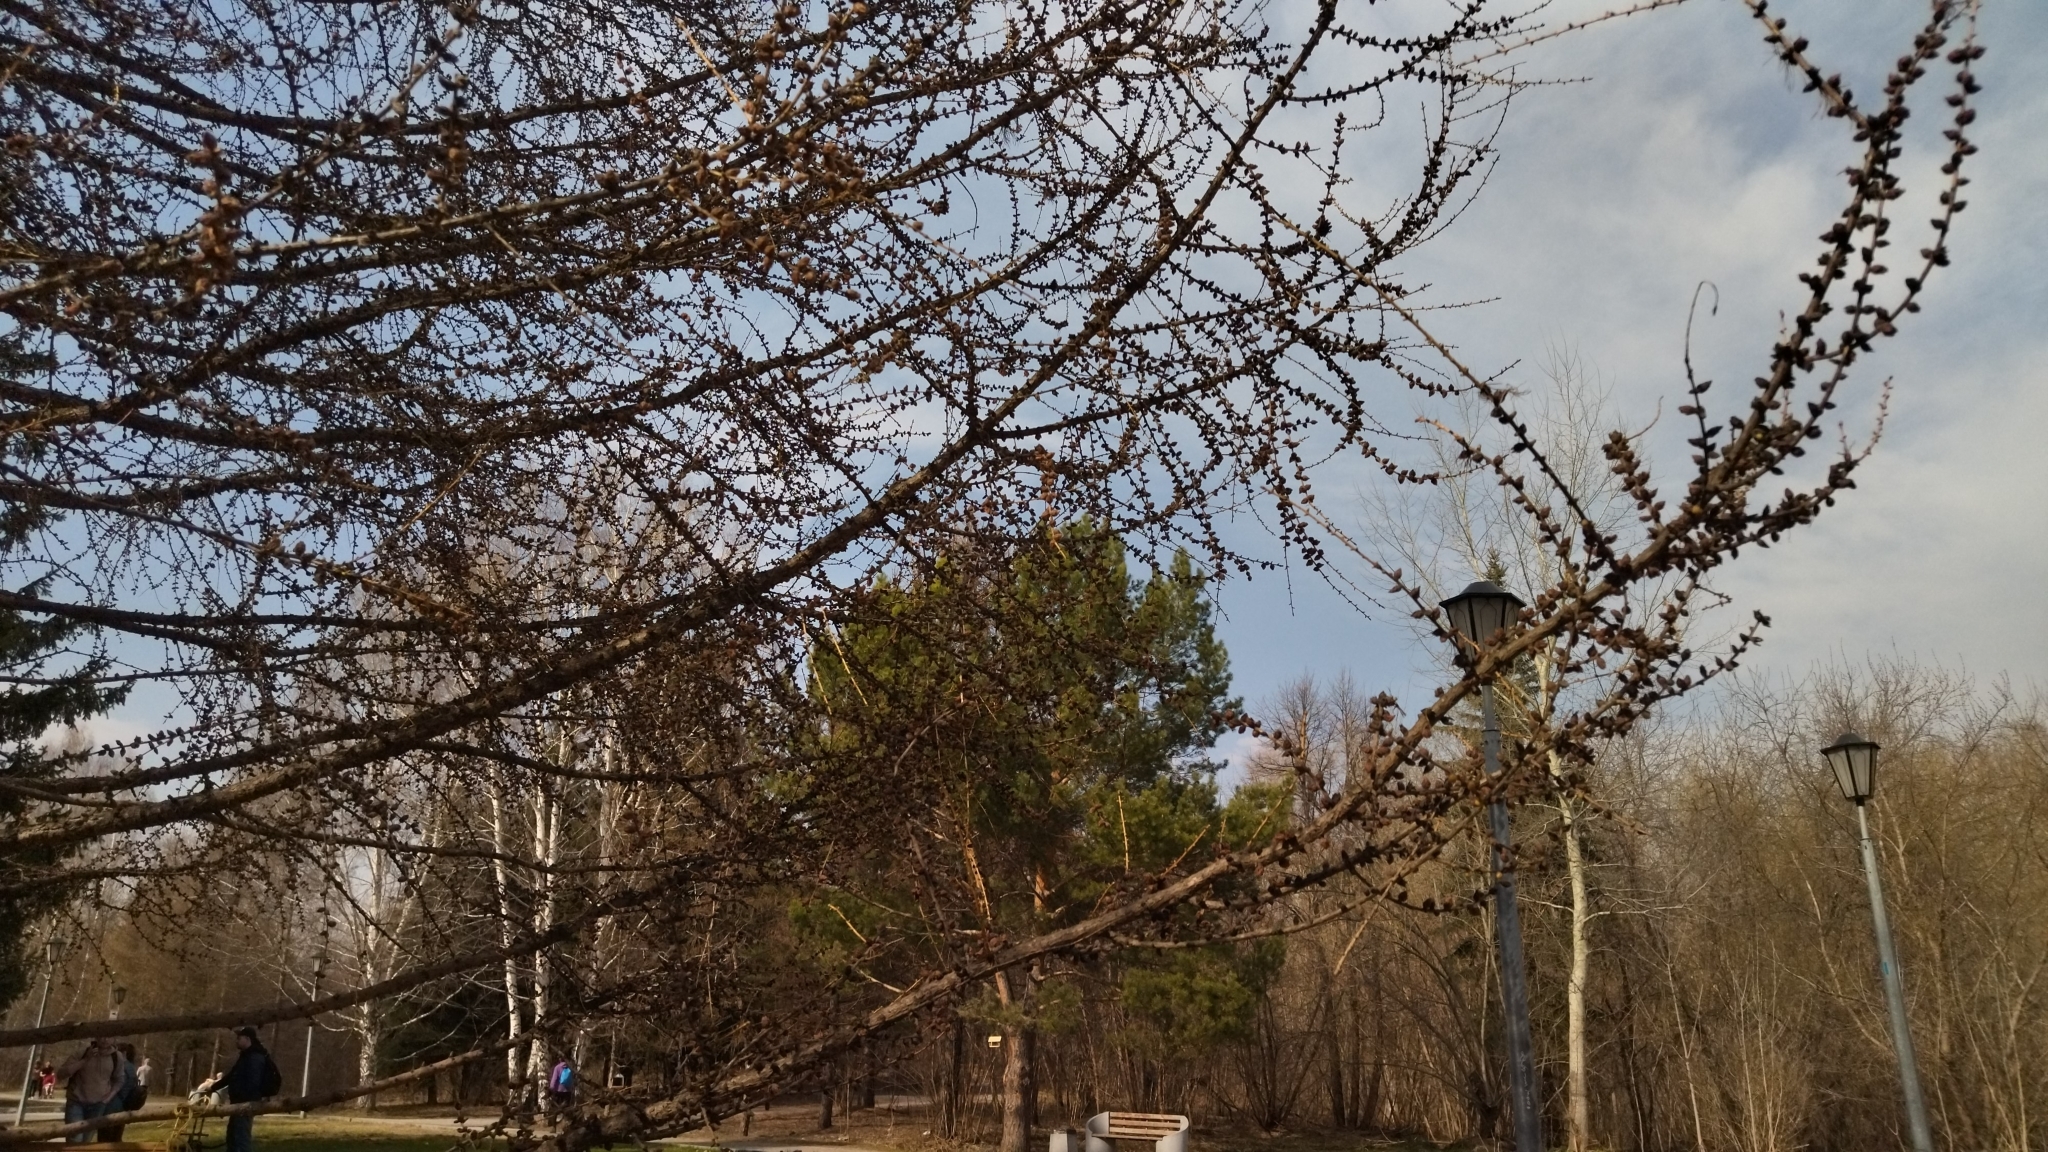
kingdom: Plantae
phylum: Tracheophyta
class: Pinopsida
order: Pinales
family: Pinaceae
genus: Larix
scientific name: Larix sibirica
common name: Siberian larch
